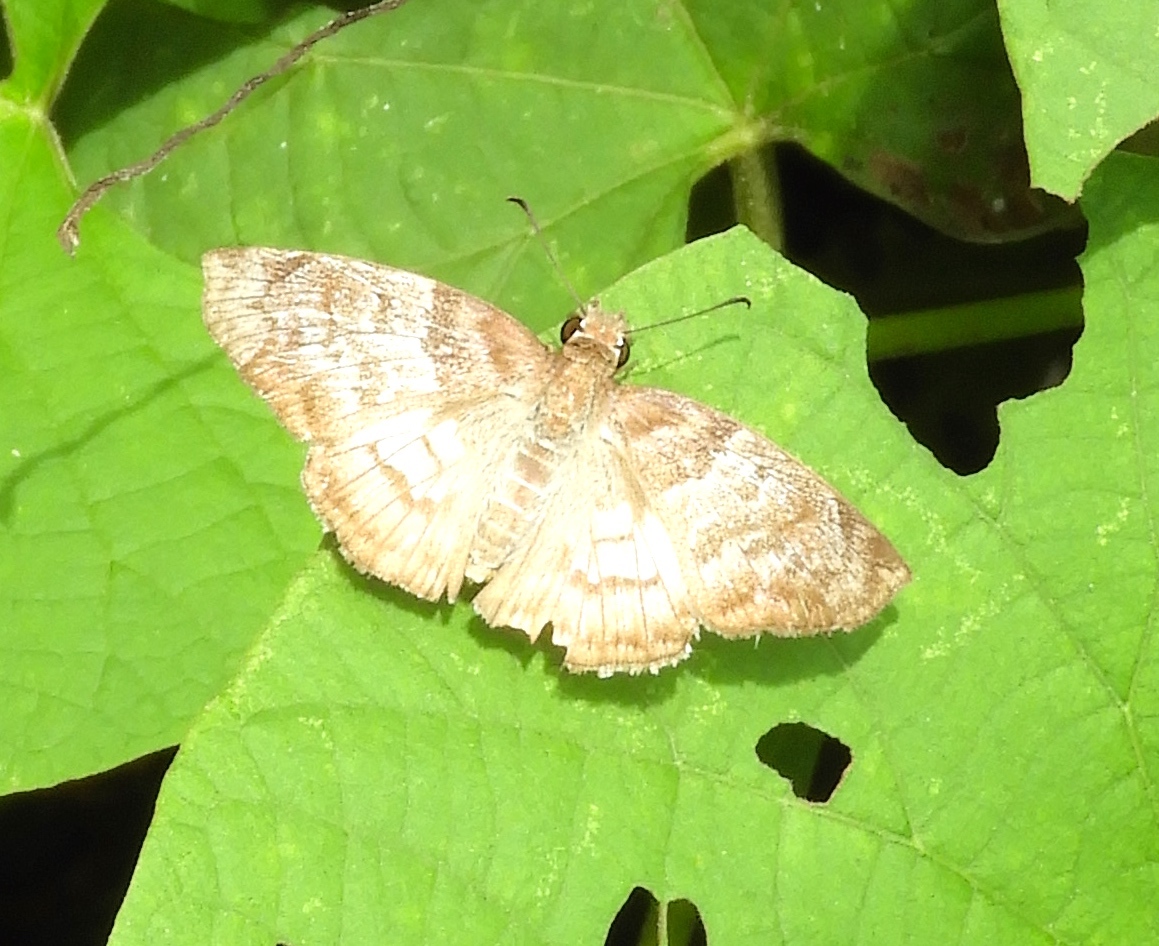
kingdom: Animalia
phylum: Arthropoda
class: Insecta
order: Lepidoptera
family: Hesperiidae
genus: Mylon
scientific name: Mylon pelopidas
